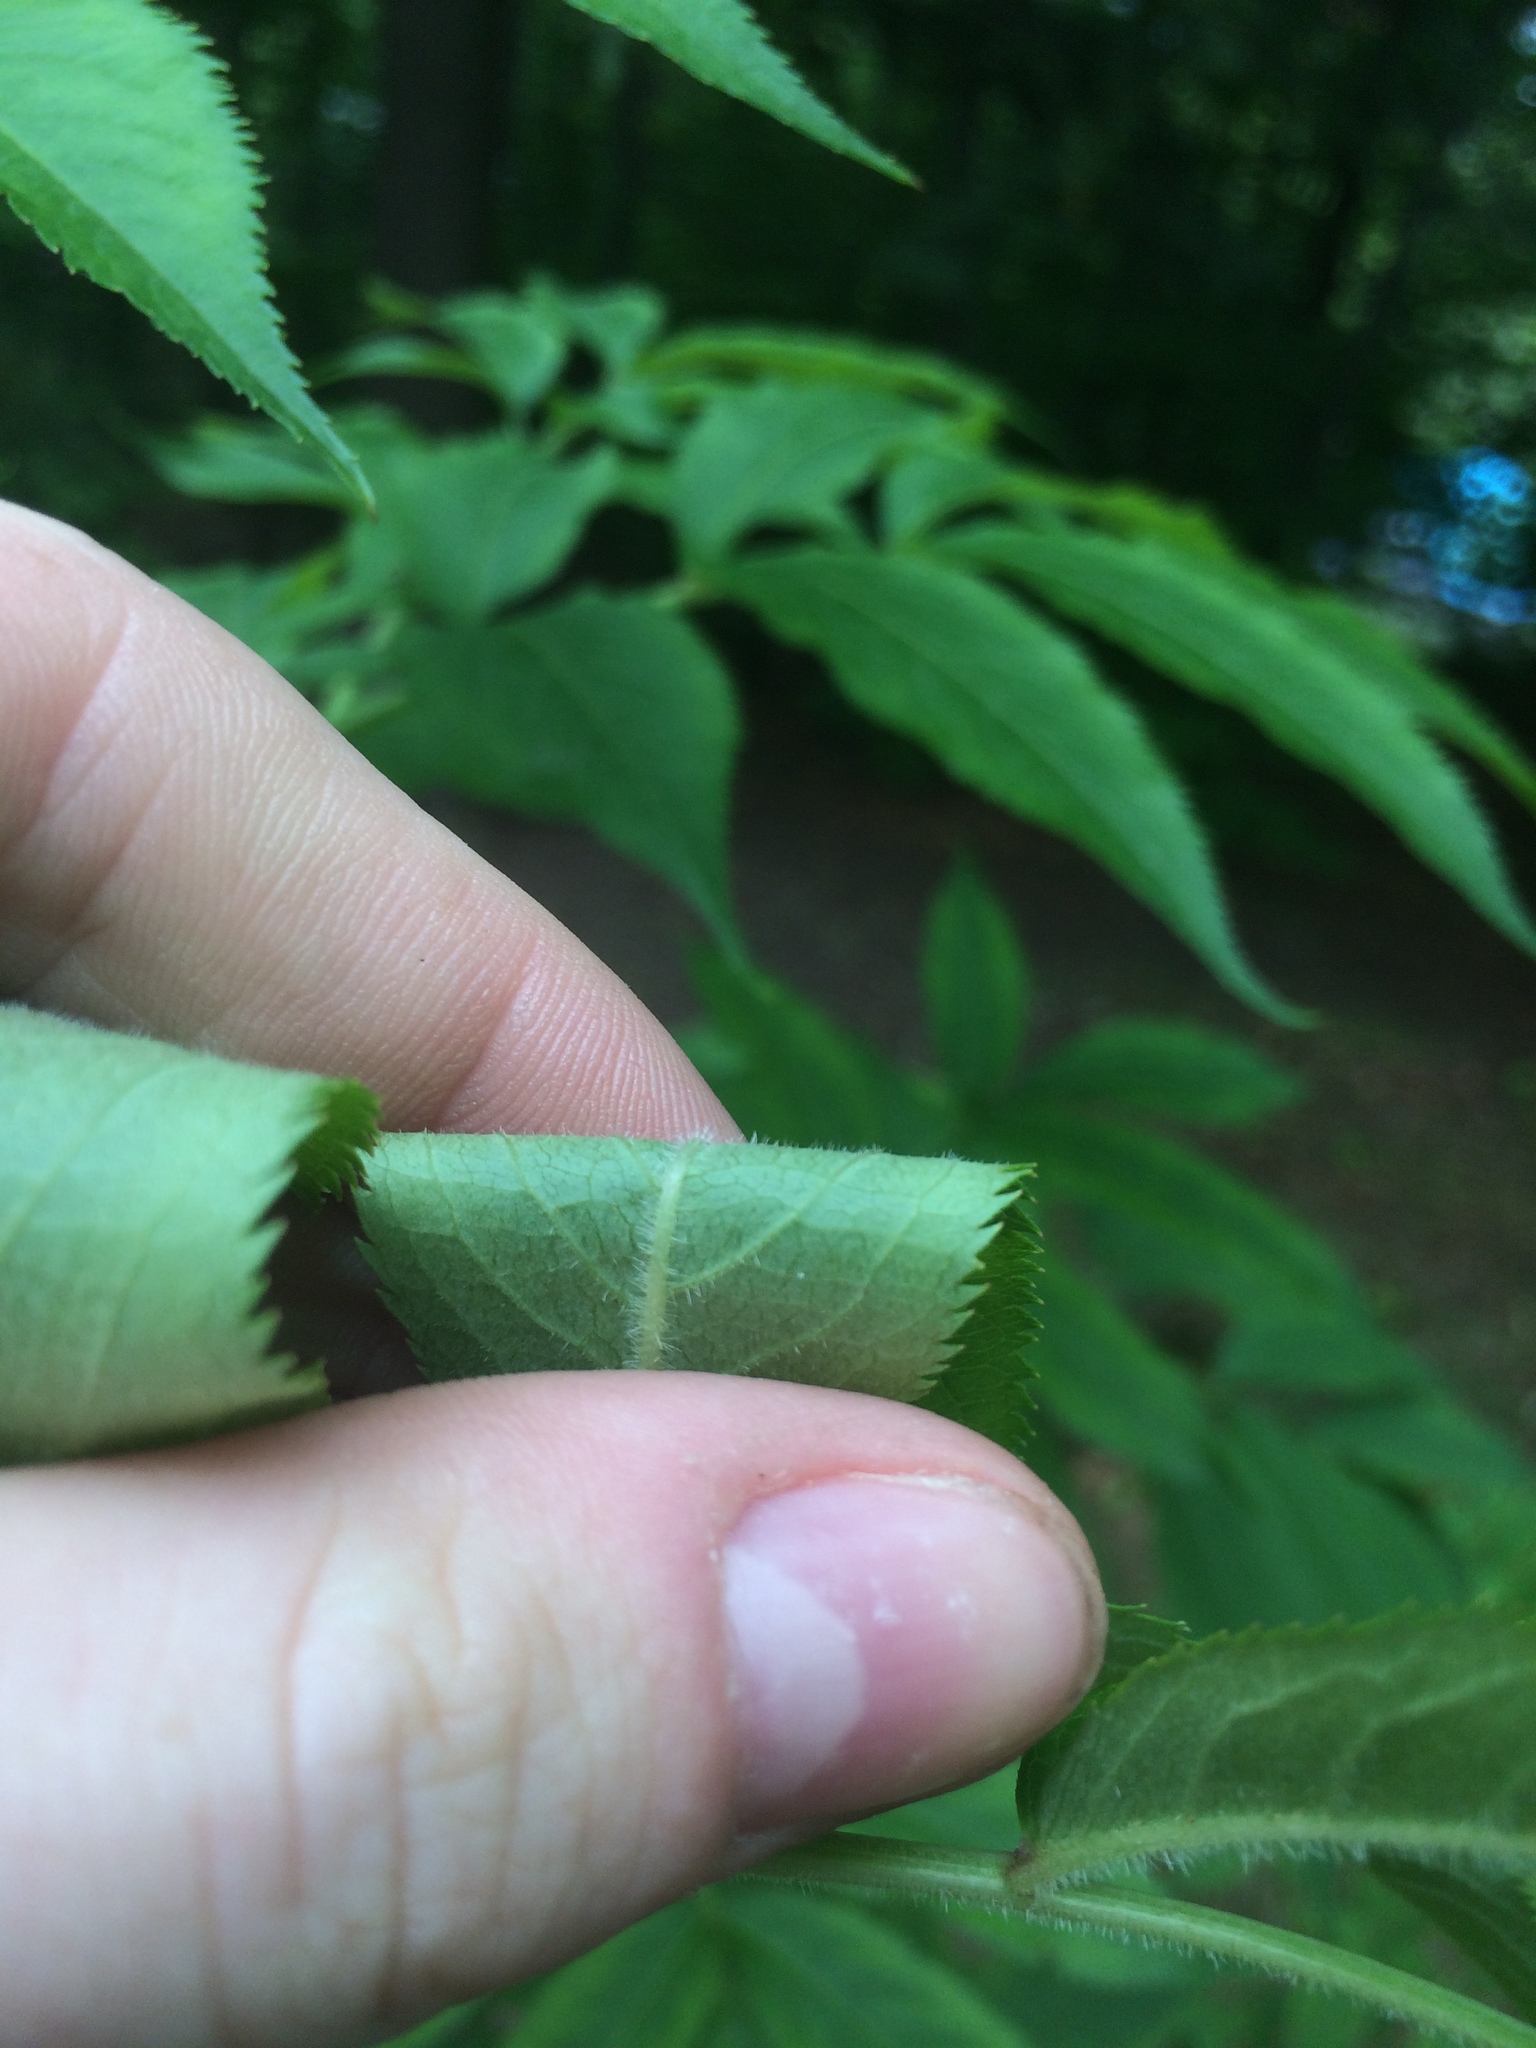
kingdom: Plantae
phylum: Tracheophyta
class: Magnoliopsida
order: Dipsacales
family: Viburnaceae
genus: Sambucus
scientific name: Sambucus canadensis
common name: American elder
